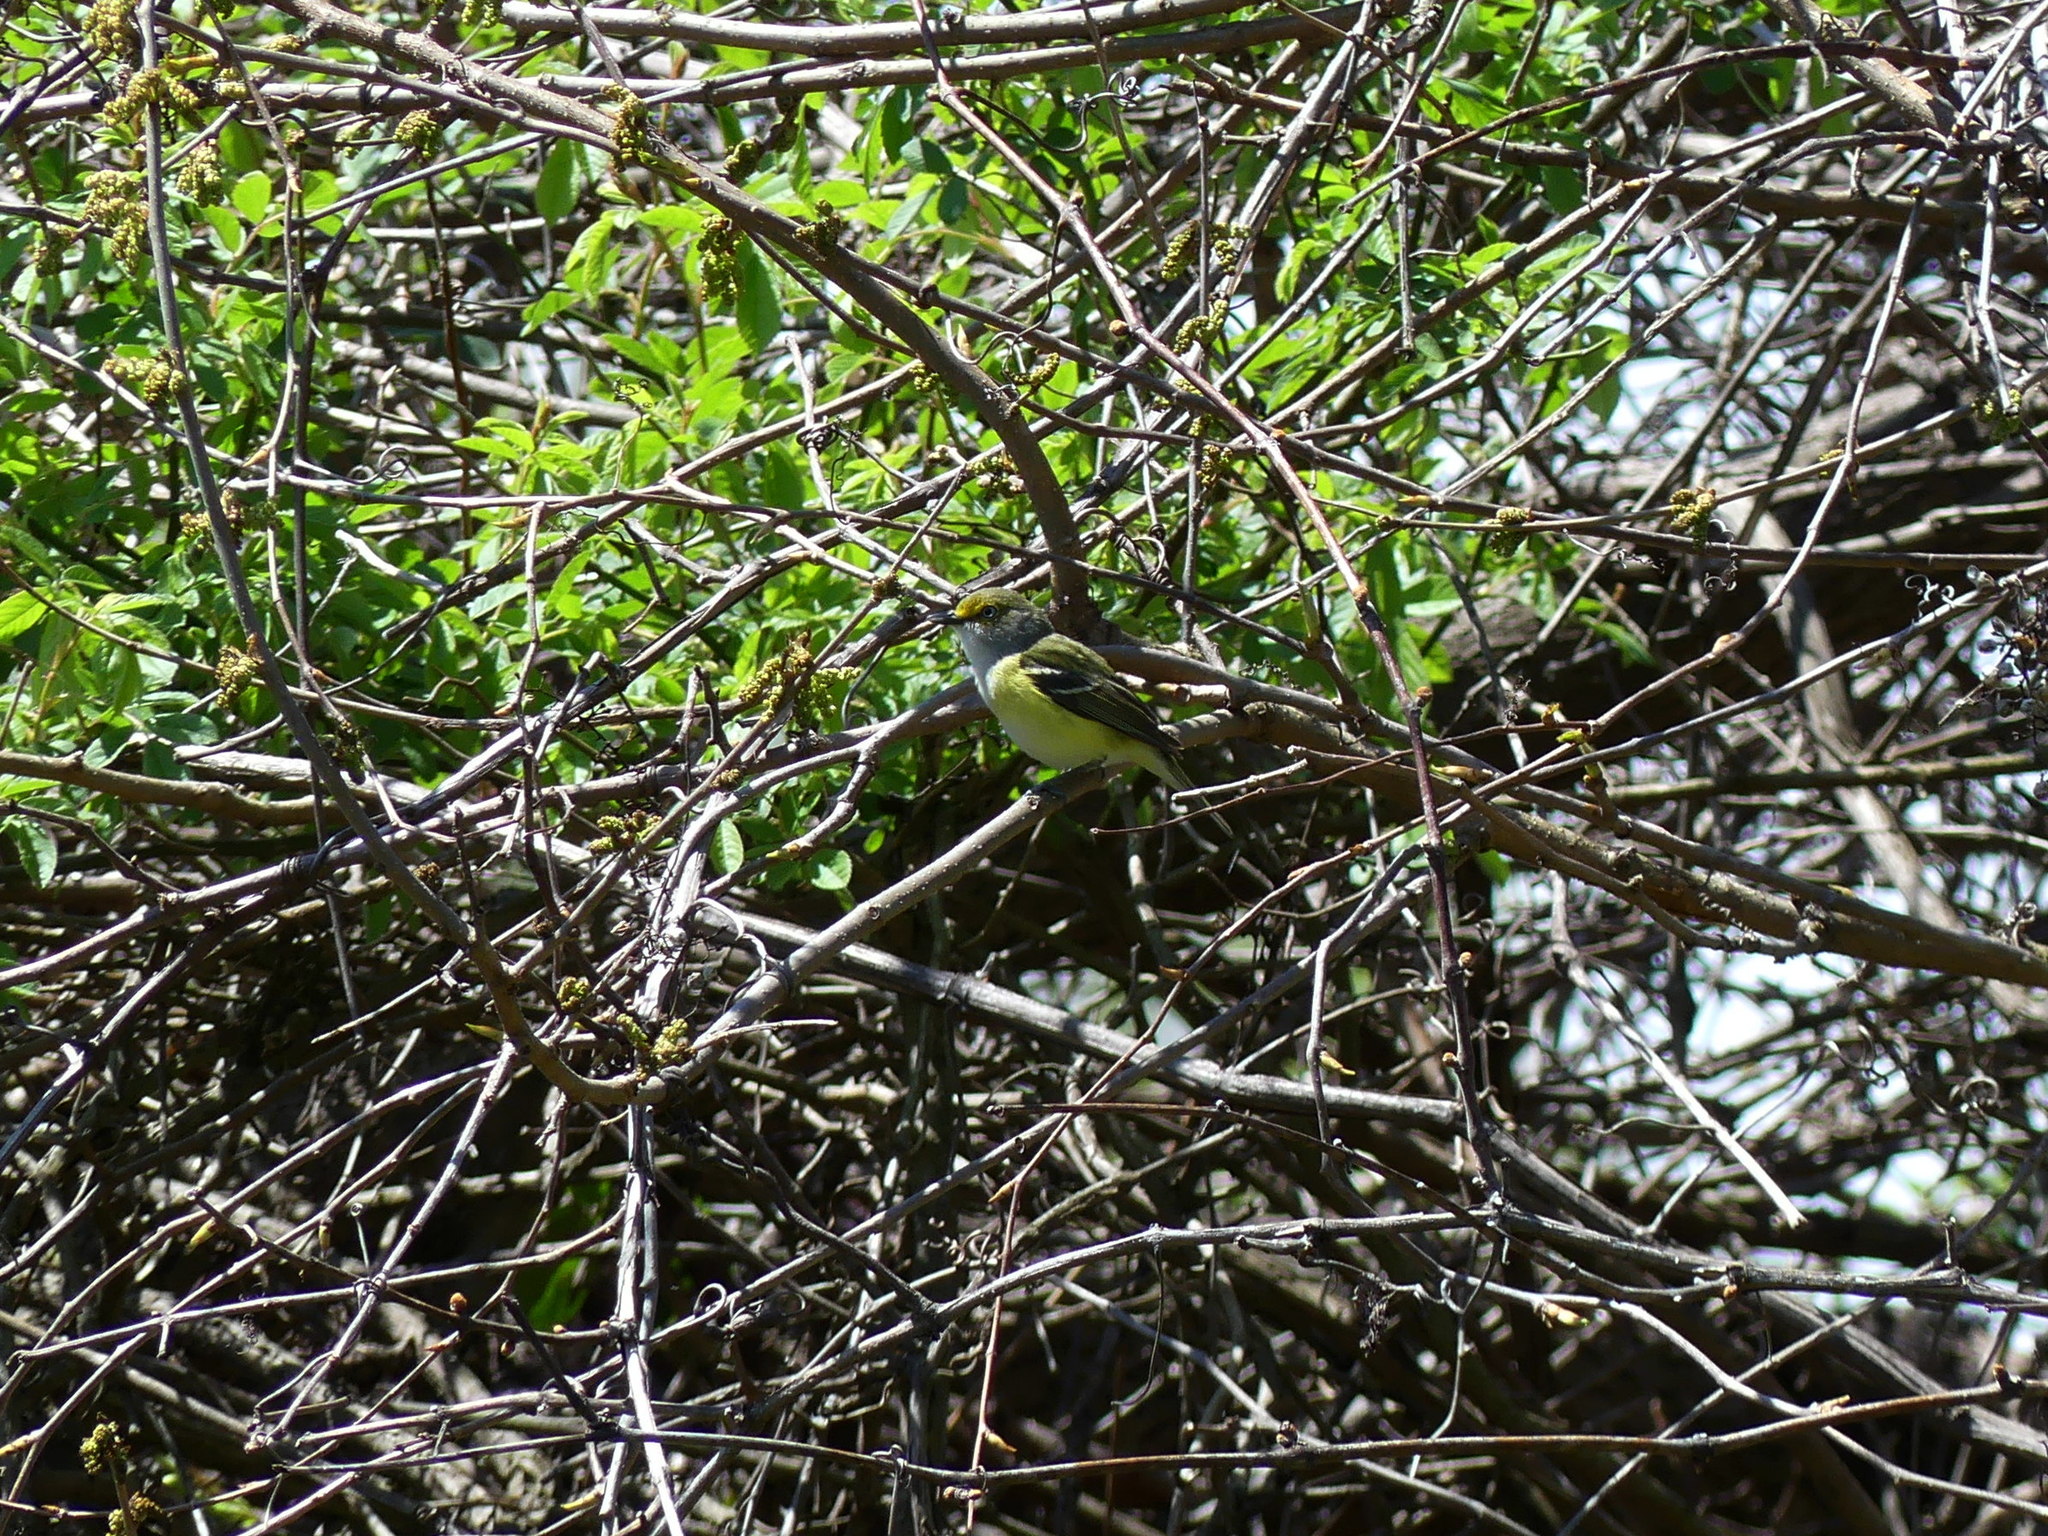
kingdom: Animalia
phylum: Chordata
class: Aves
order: Passeriformes
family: Vireonidae
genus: Vireo
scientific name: Vireo griseus
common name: White-eyed vireo
